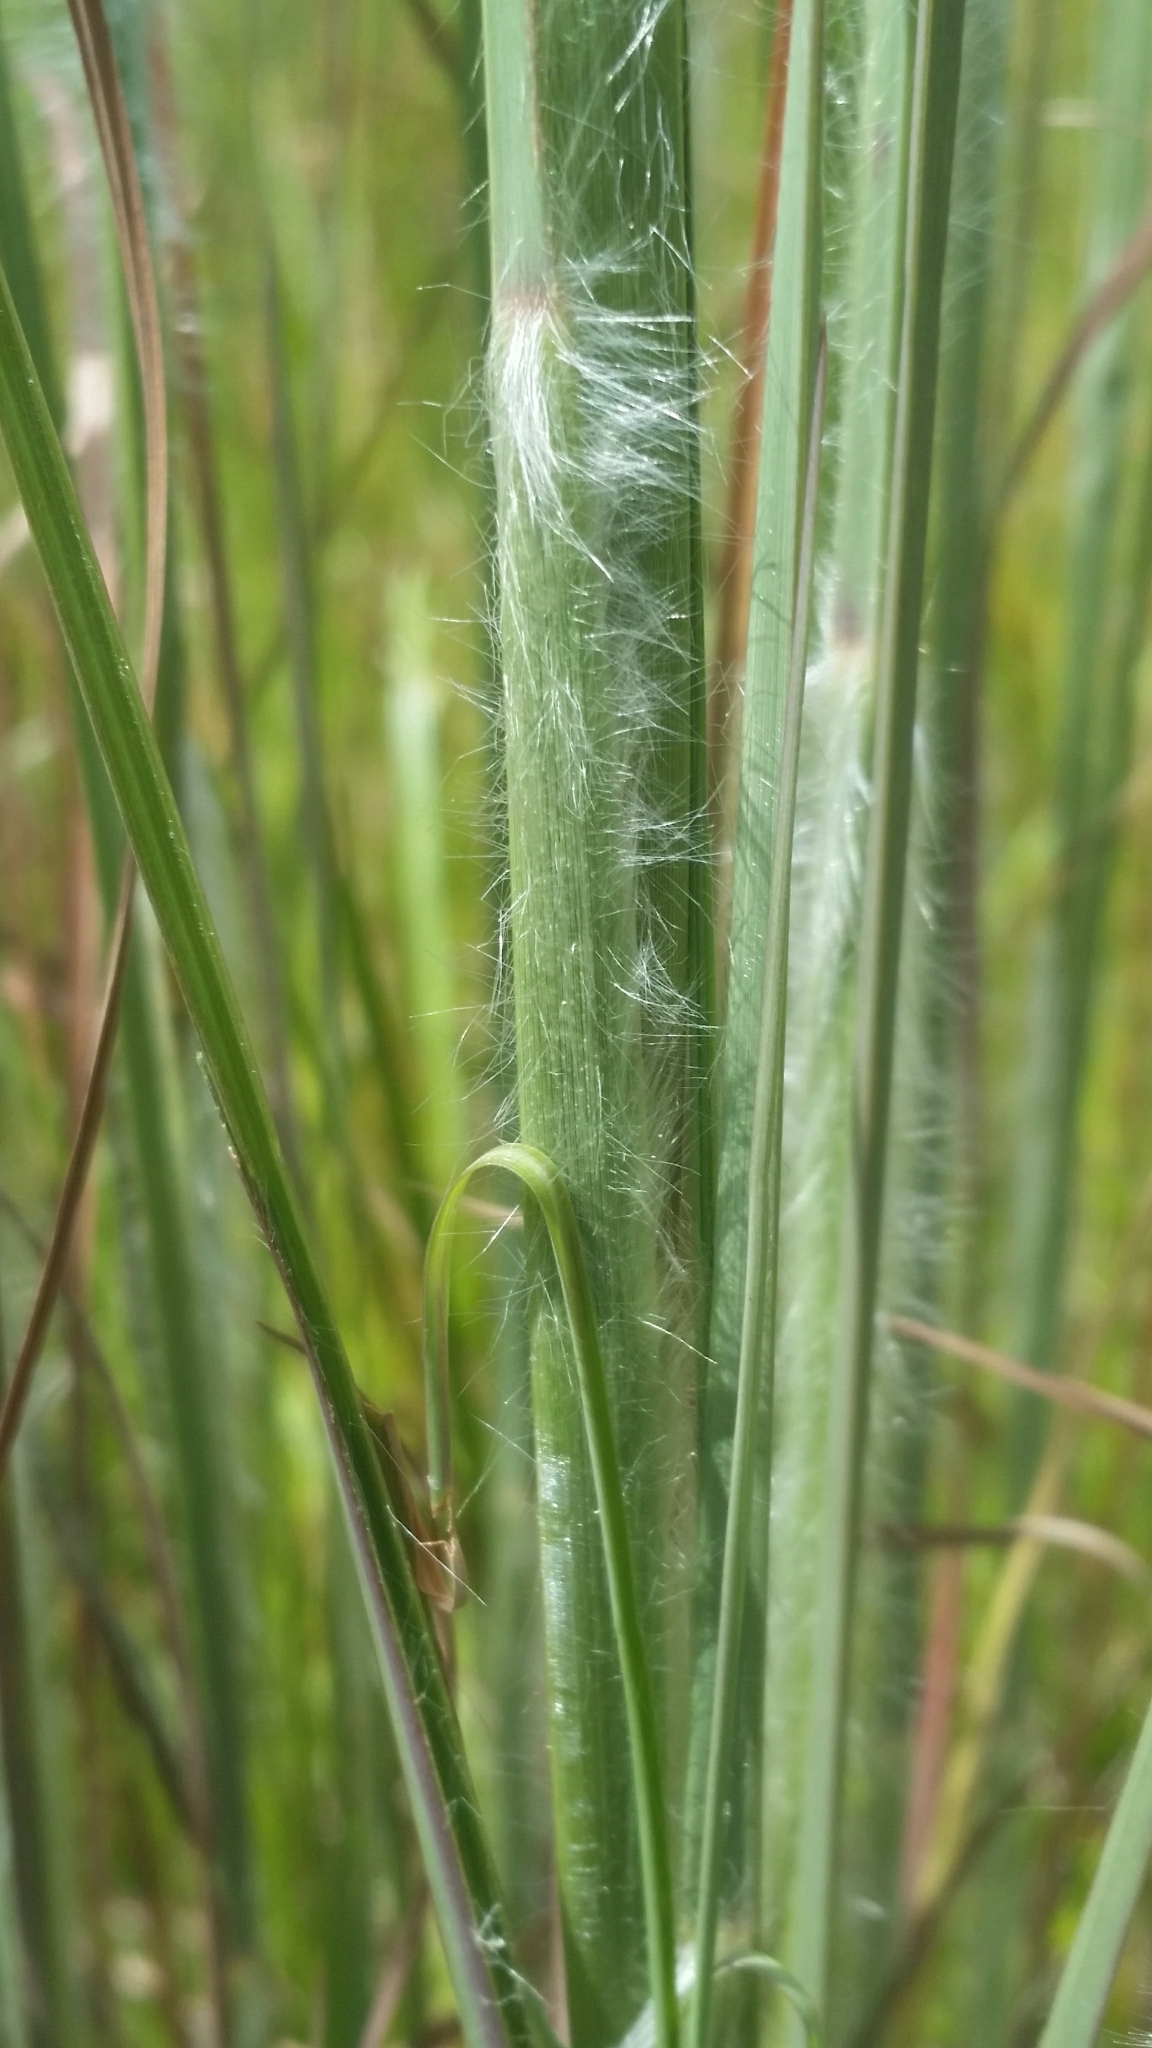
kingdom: Plantae
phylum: Tracheophyta
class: Liliopsida
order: Poales
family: Poaceae
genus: Andropogon
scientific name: Andropogon hirsutior
